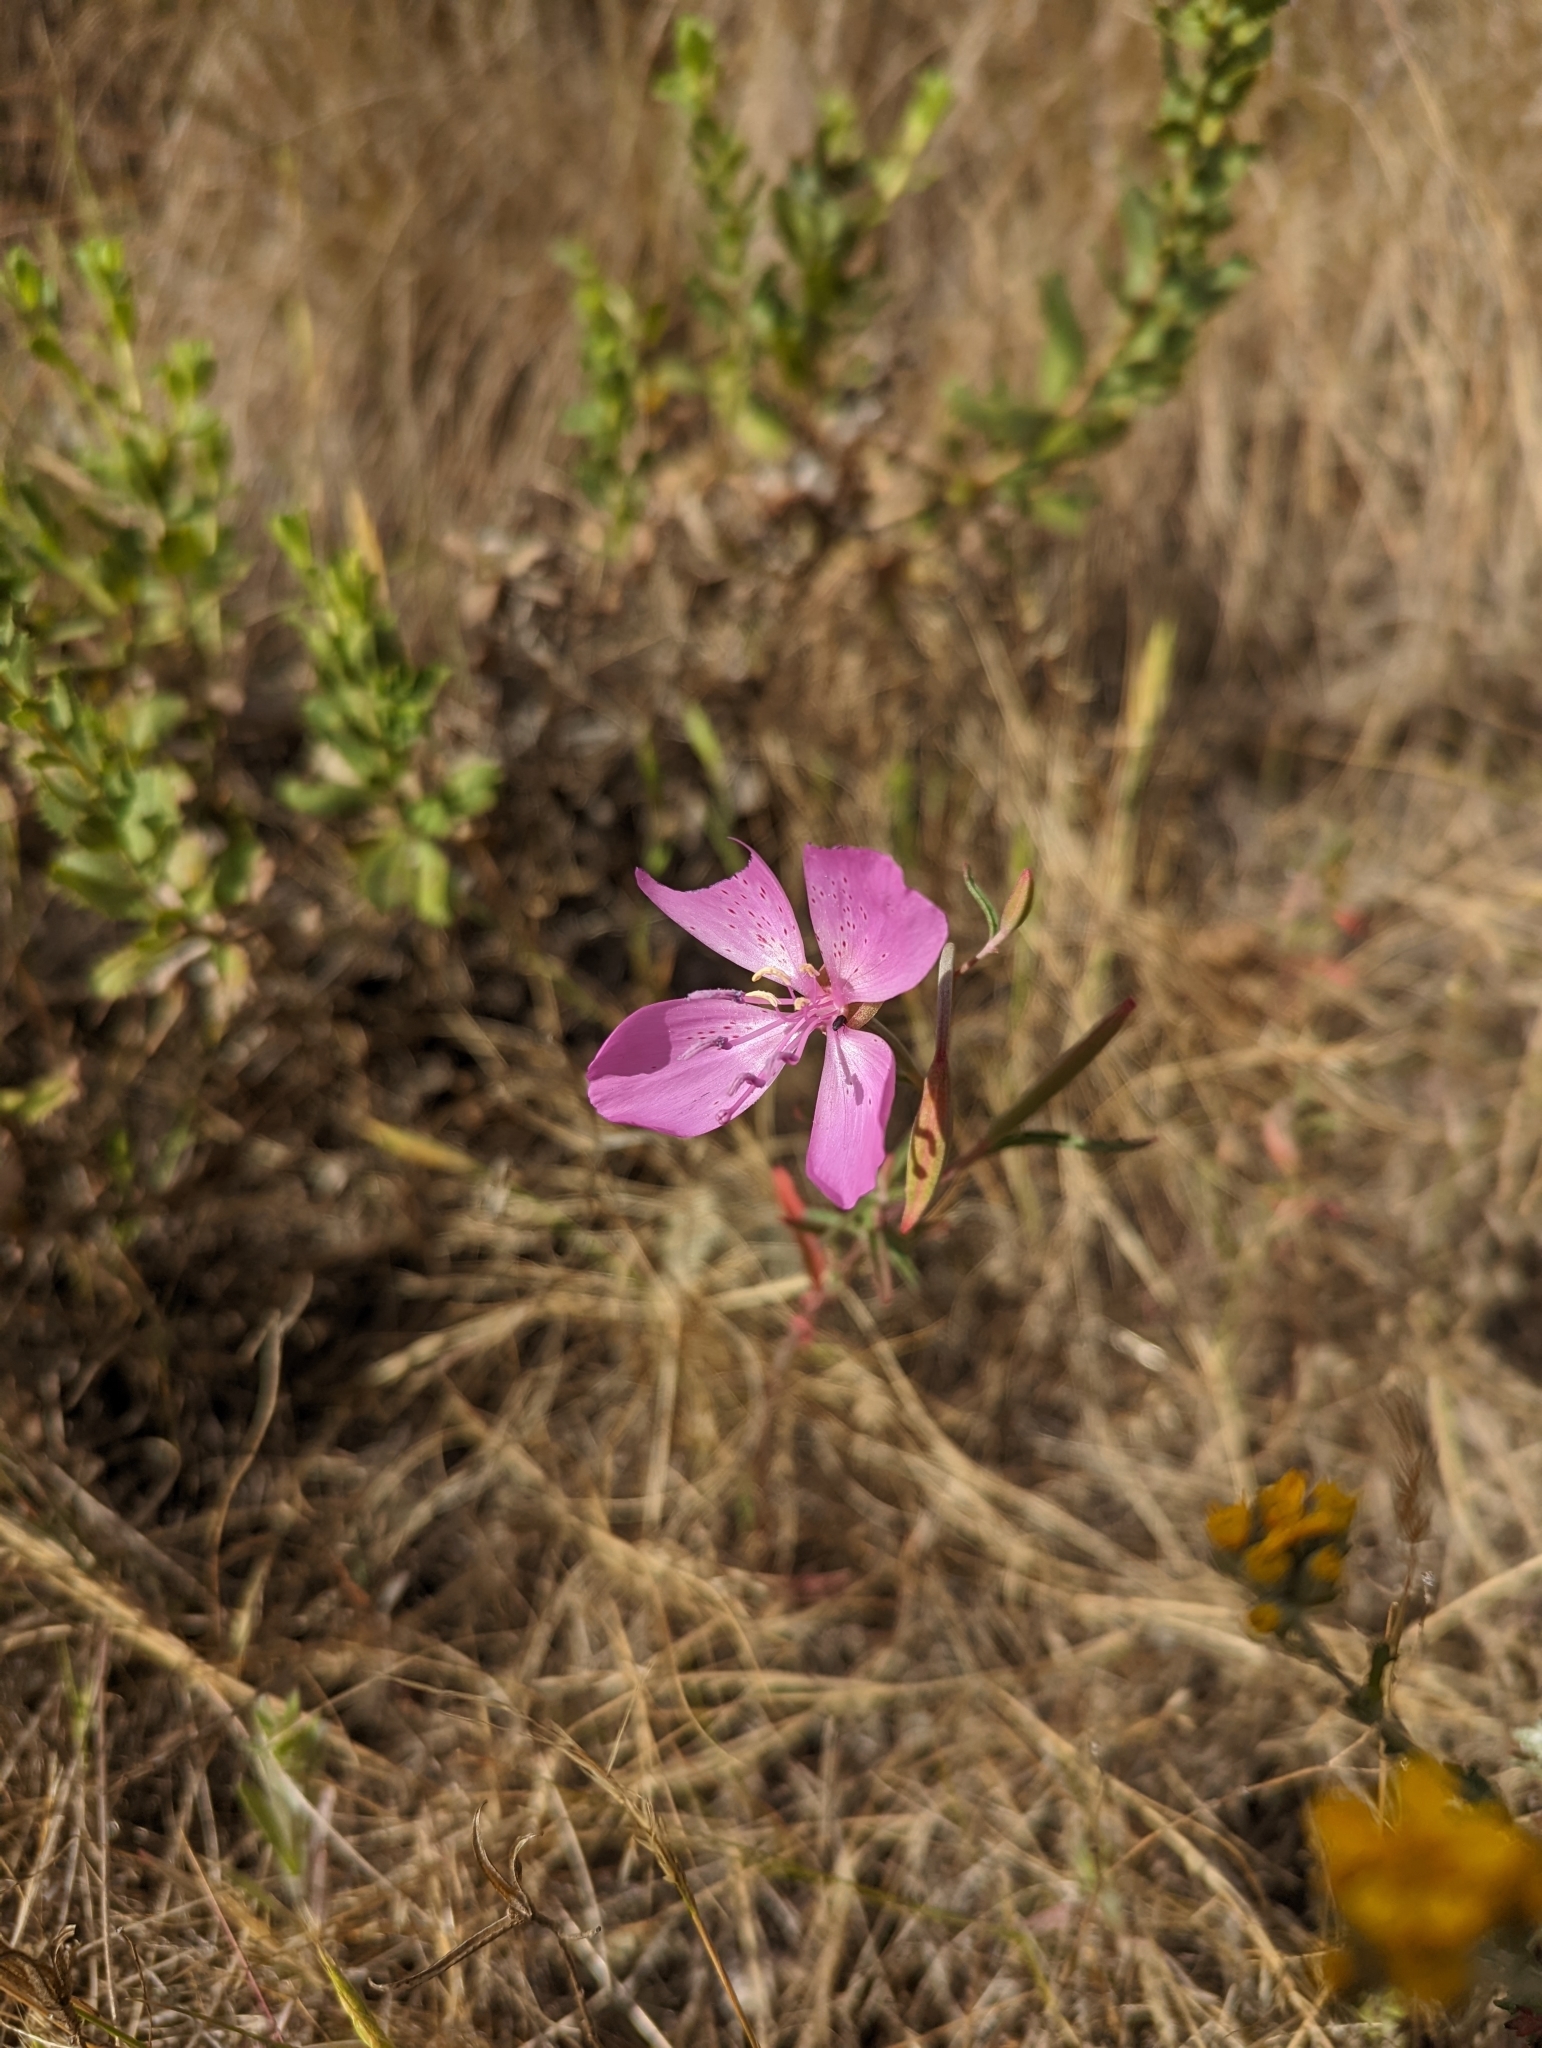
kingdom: Plantae
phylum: Tracheophyta
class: Magnoliopsida
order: Myrtales
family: Onagraceae
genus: Clarkia
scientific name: Clarkia bottae
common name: Punch-bowl godetia
